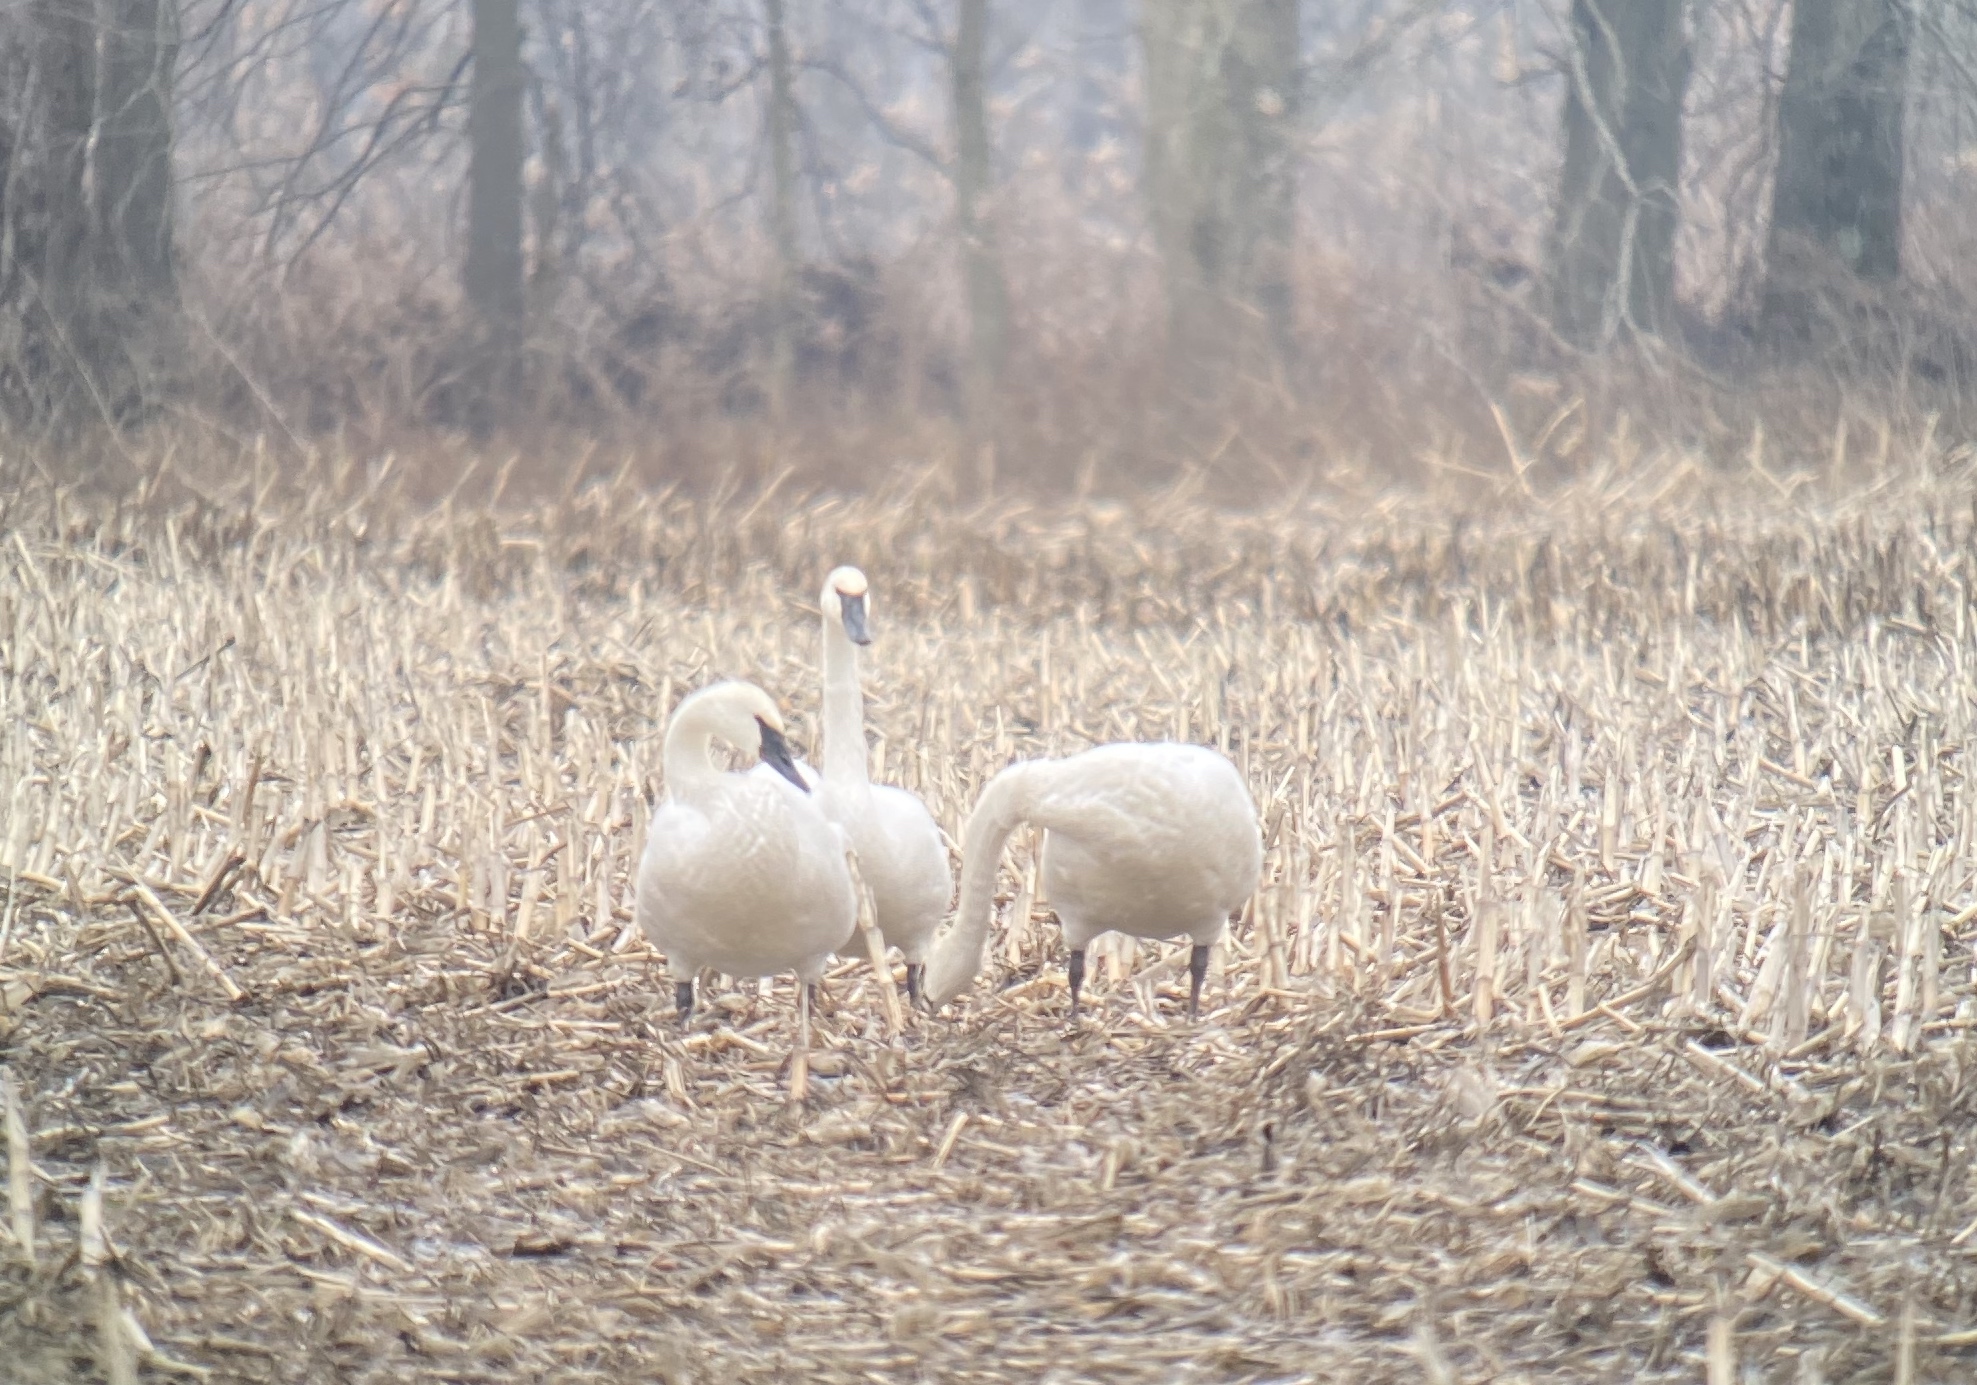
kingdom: Animalia
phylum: Chordata
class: Aves
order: Anseriformes
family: Anatidae
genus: Cygnus
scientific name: Cygnus buccinator
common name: Trumpeter swan
